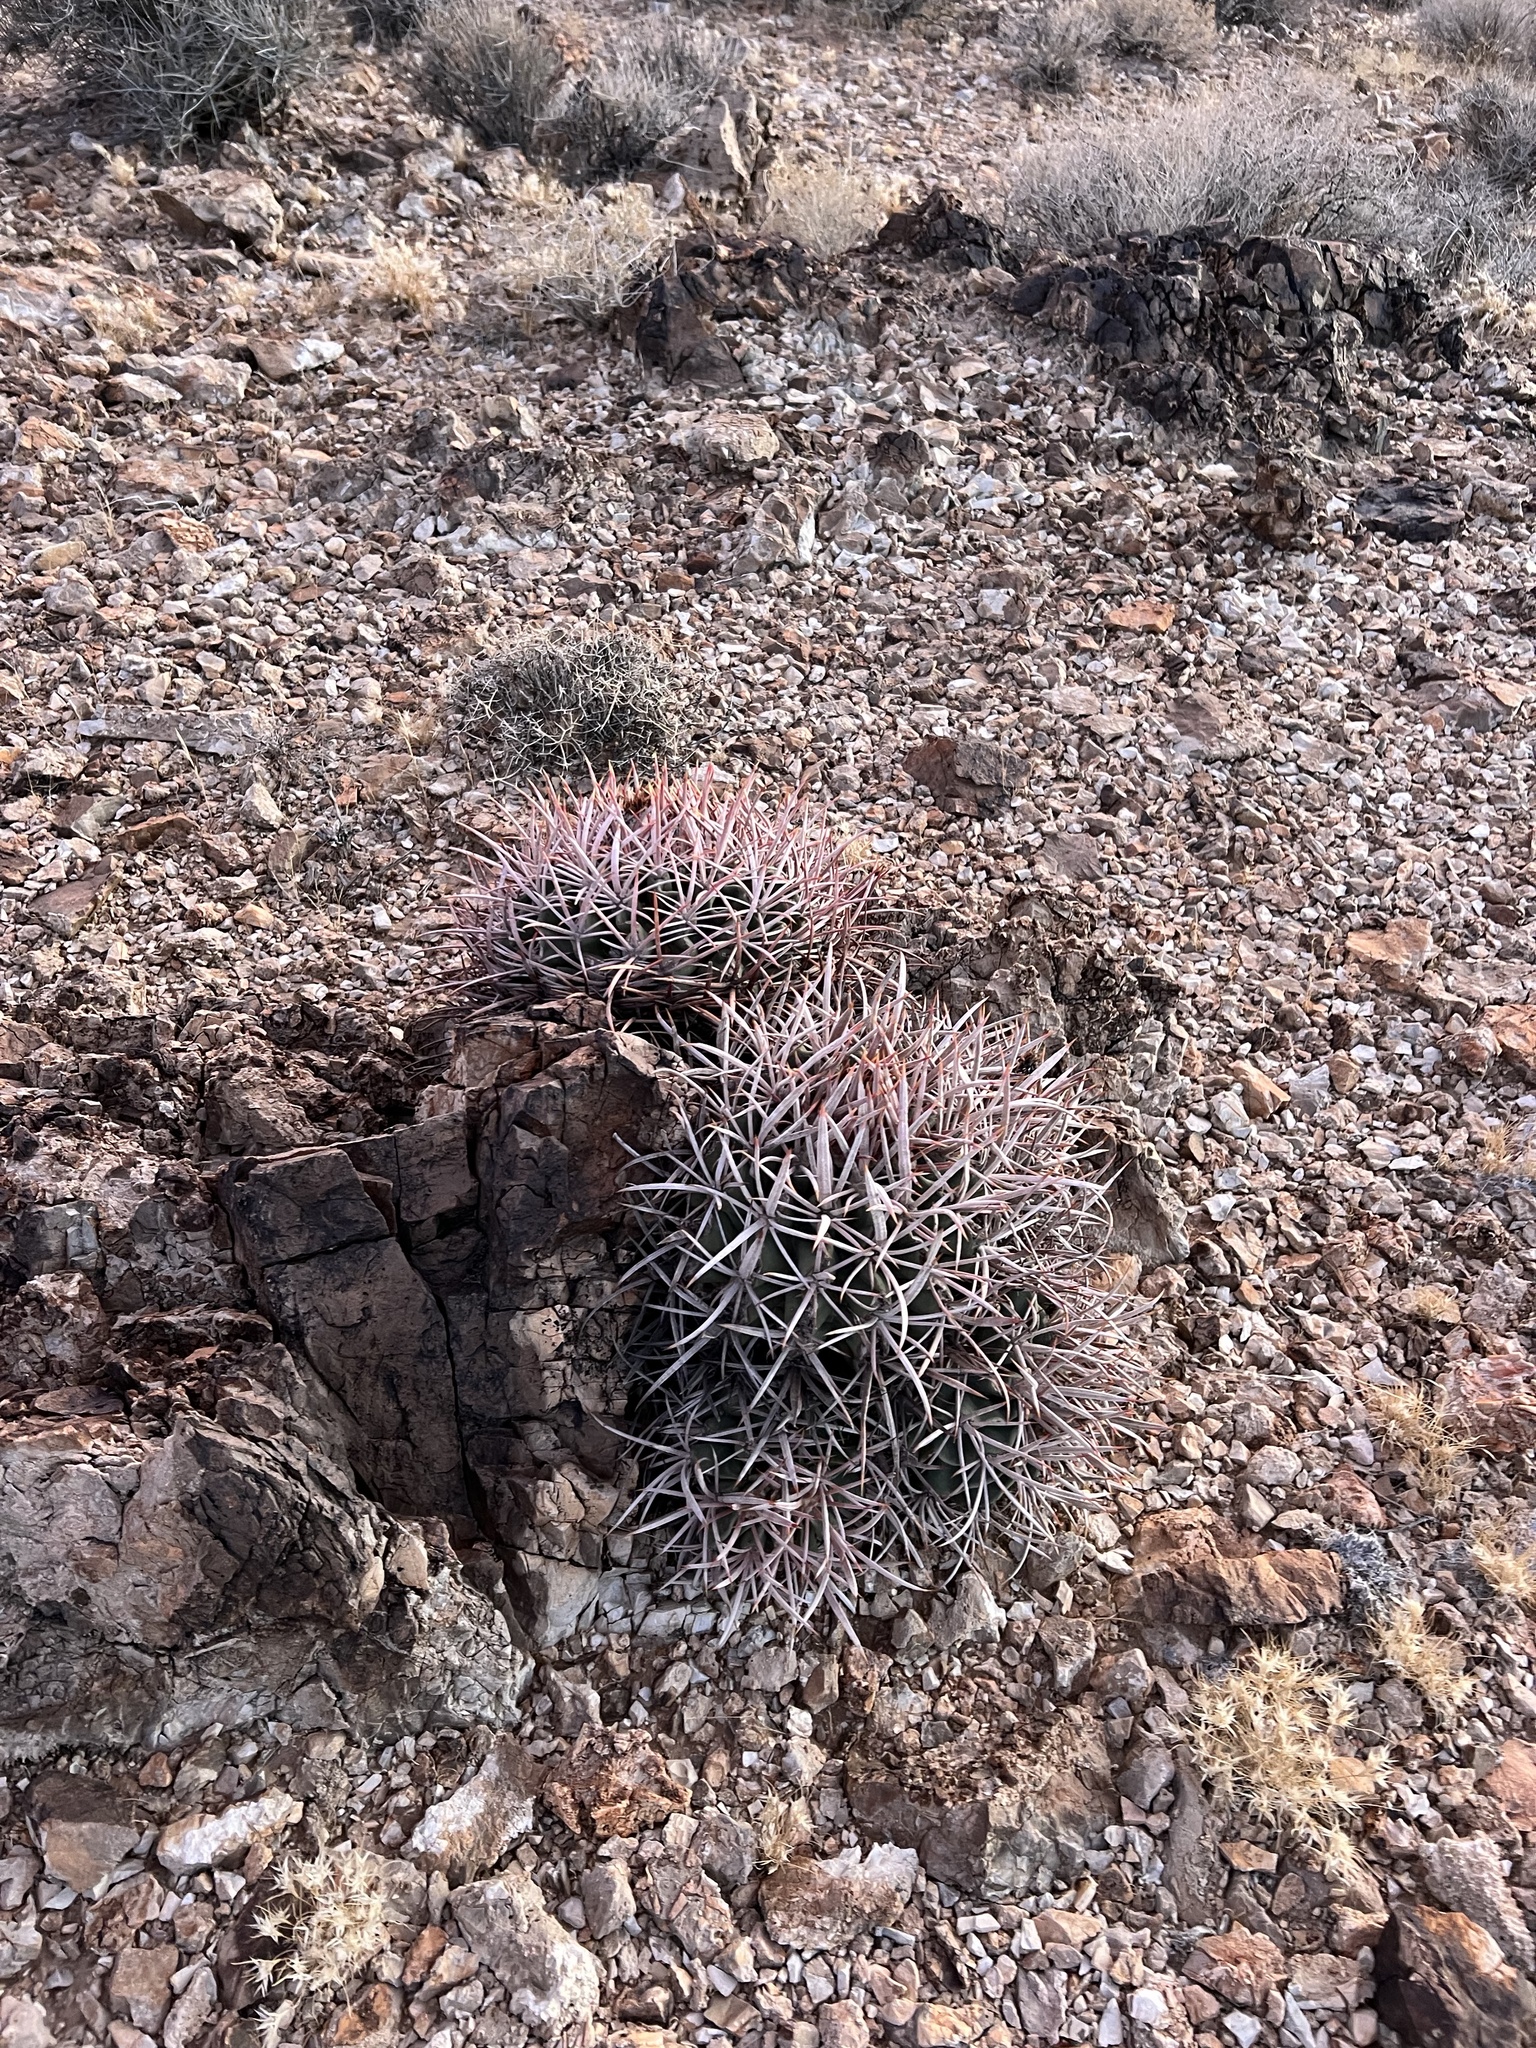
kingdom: Plantae
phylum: Tracheophyta
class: Magnoliopsida
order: Caryophyllales
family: Cactaceae
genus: Echinocactus
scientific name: Echinocactus polycephalus
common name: Cottontop cactus
